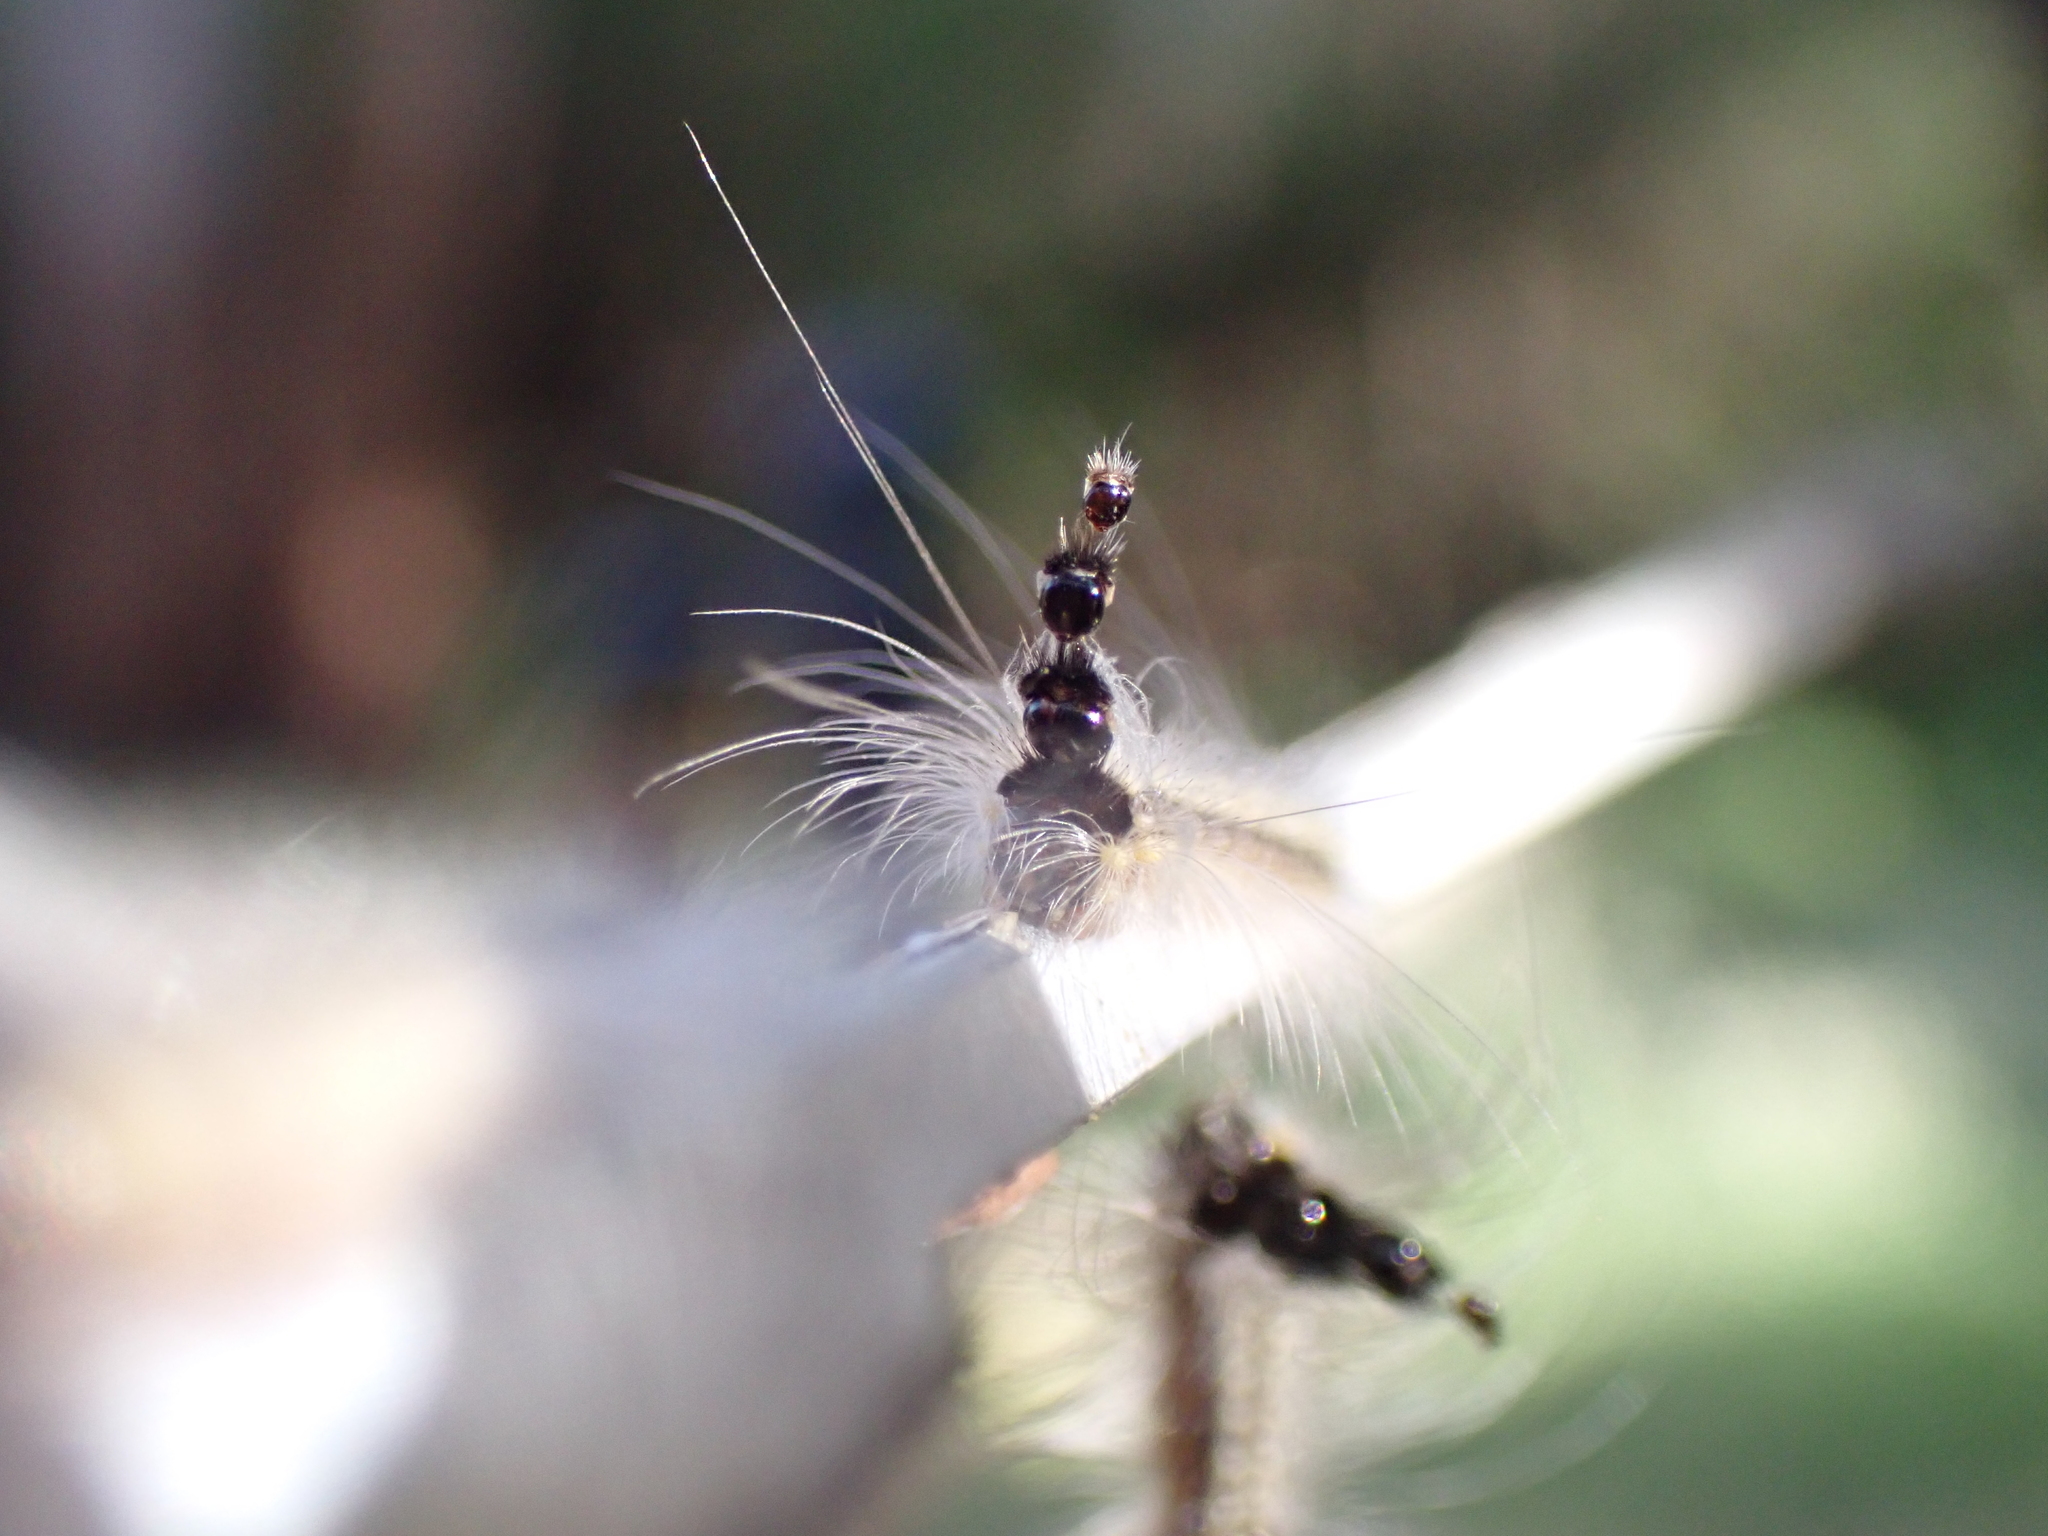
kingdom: Animalia
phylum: Arthropoda
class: Insecta
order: Lepidoptera
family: Nolidae
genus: Uraba
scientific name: Uraba lugens
